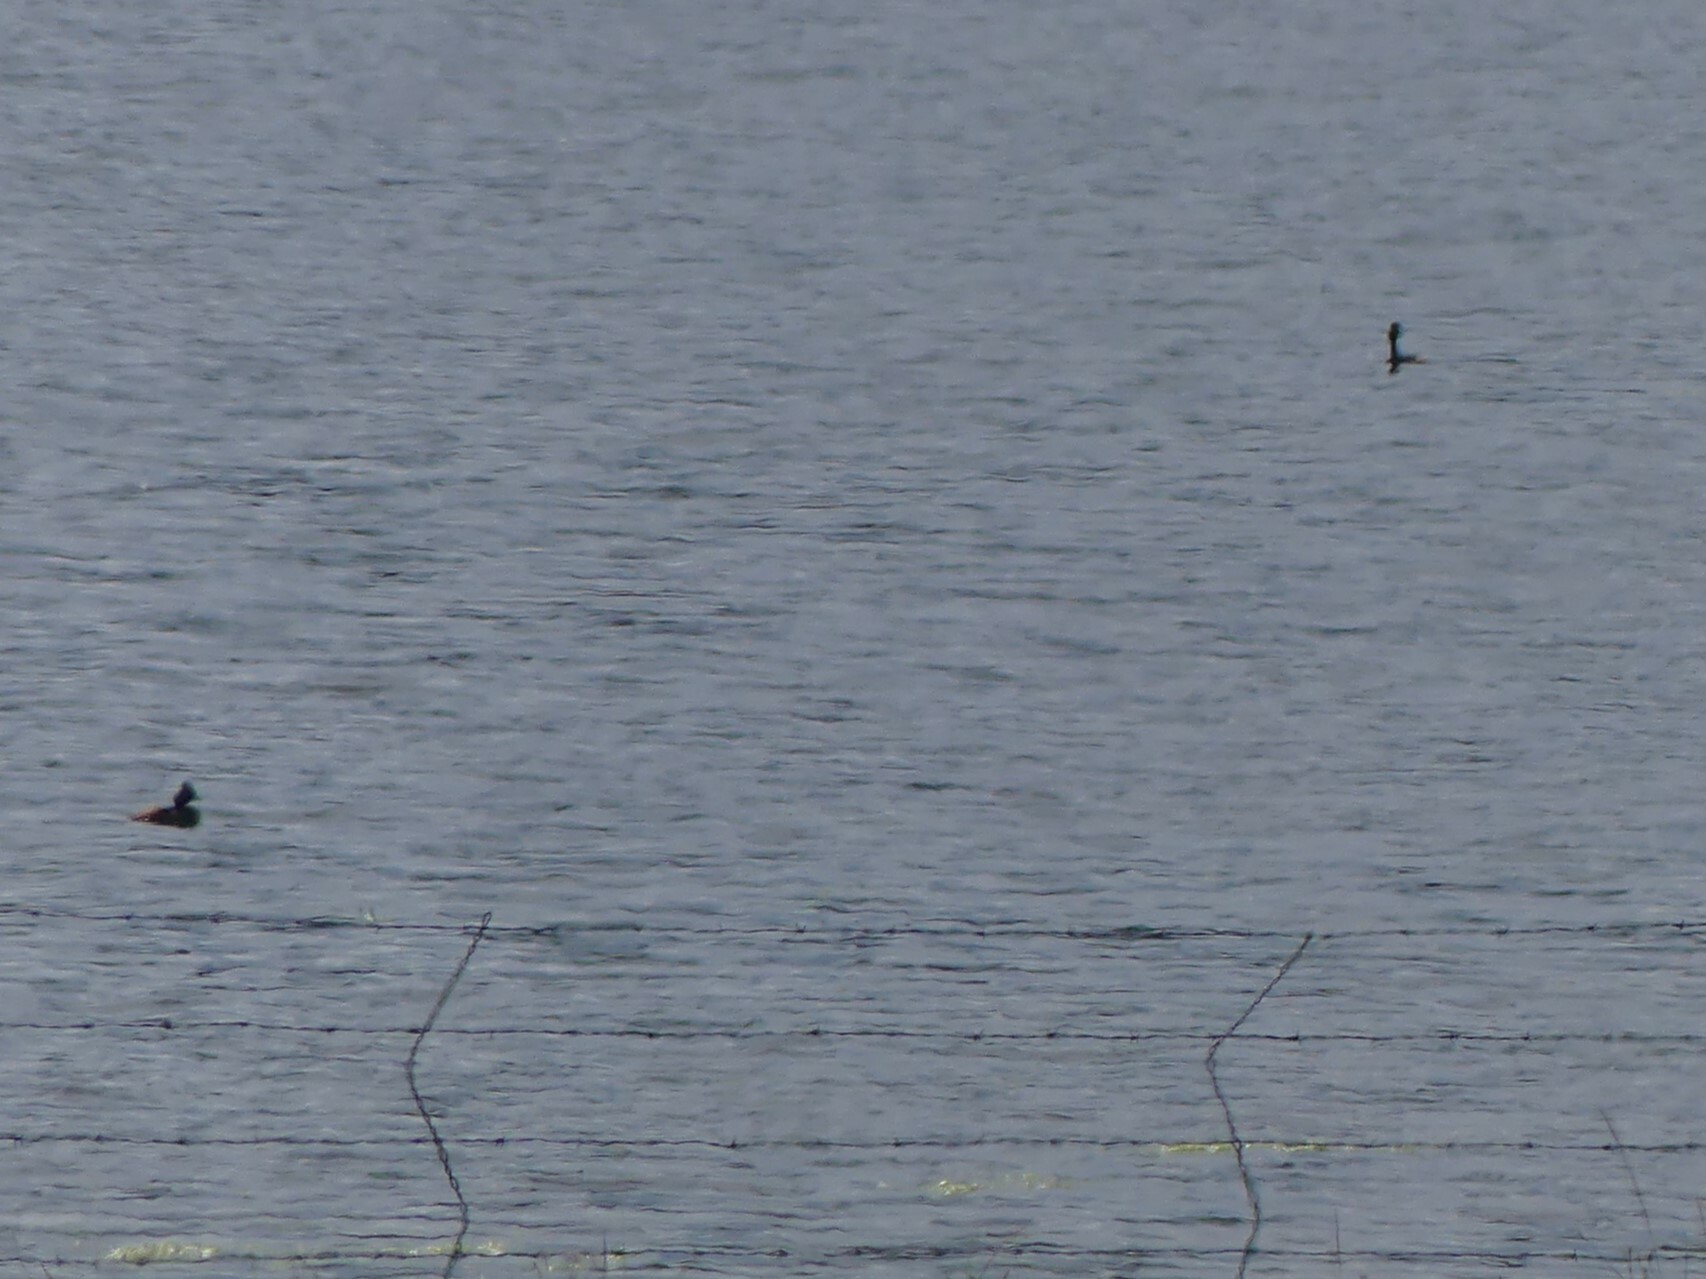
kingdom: Animalia
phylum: Chordata
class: Aves
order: Podicipediformes
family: Podicipedidae
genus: Podiceps
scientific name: Podiceps nigricollis
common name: Black-necked grebe
